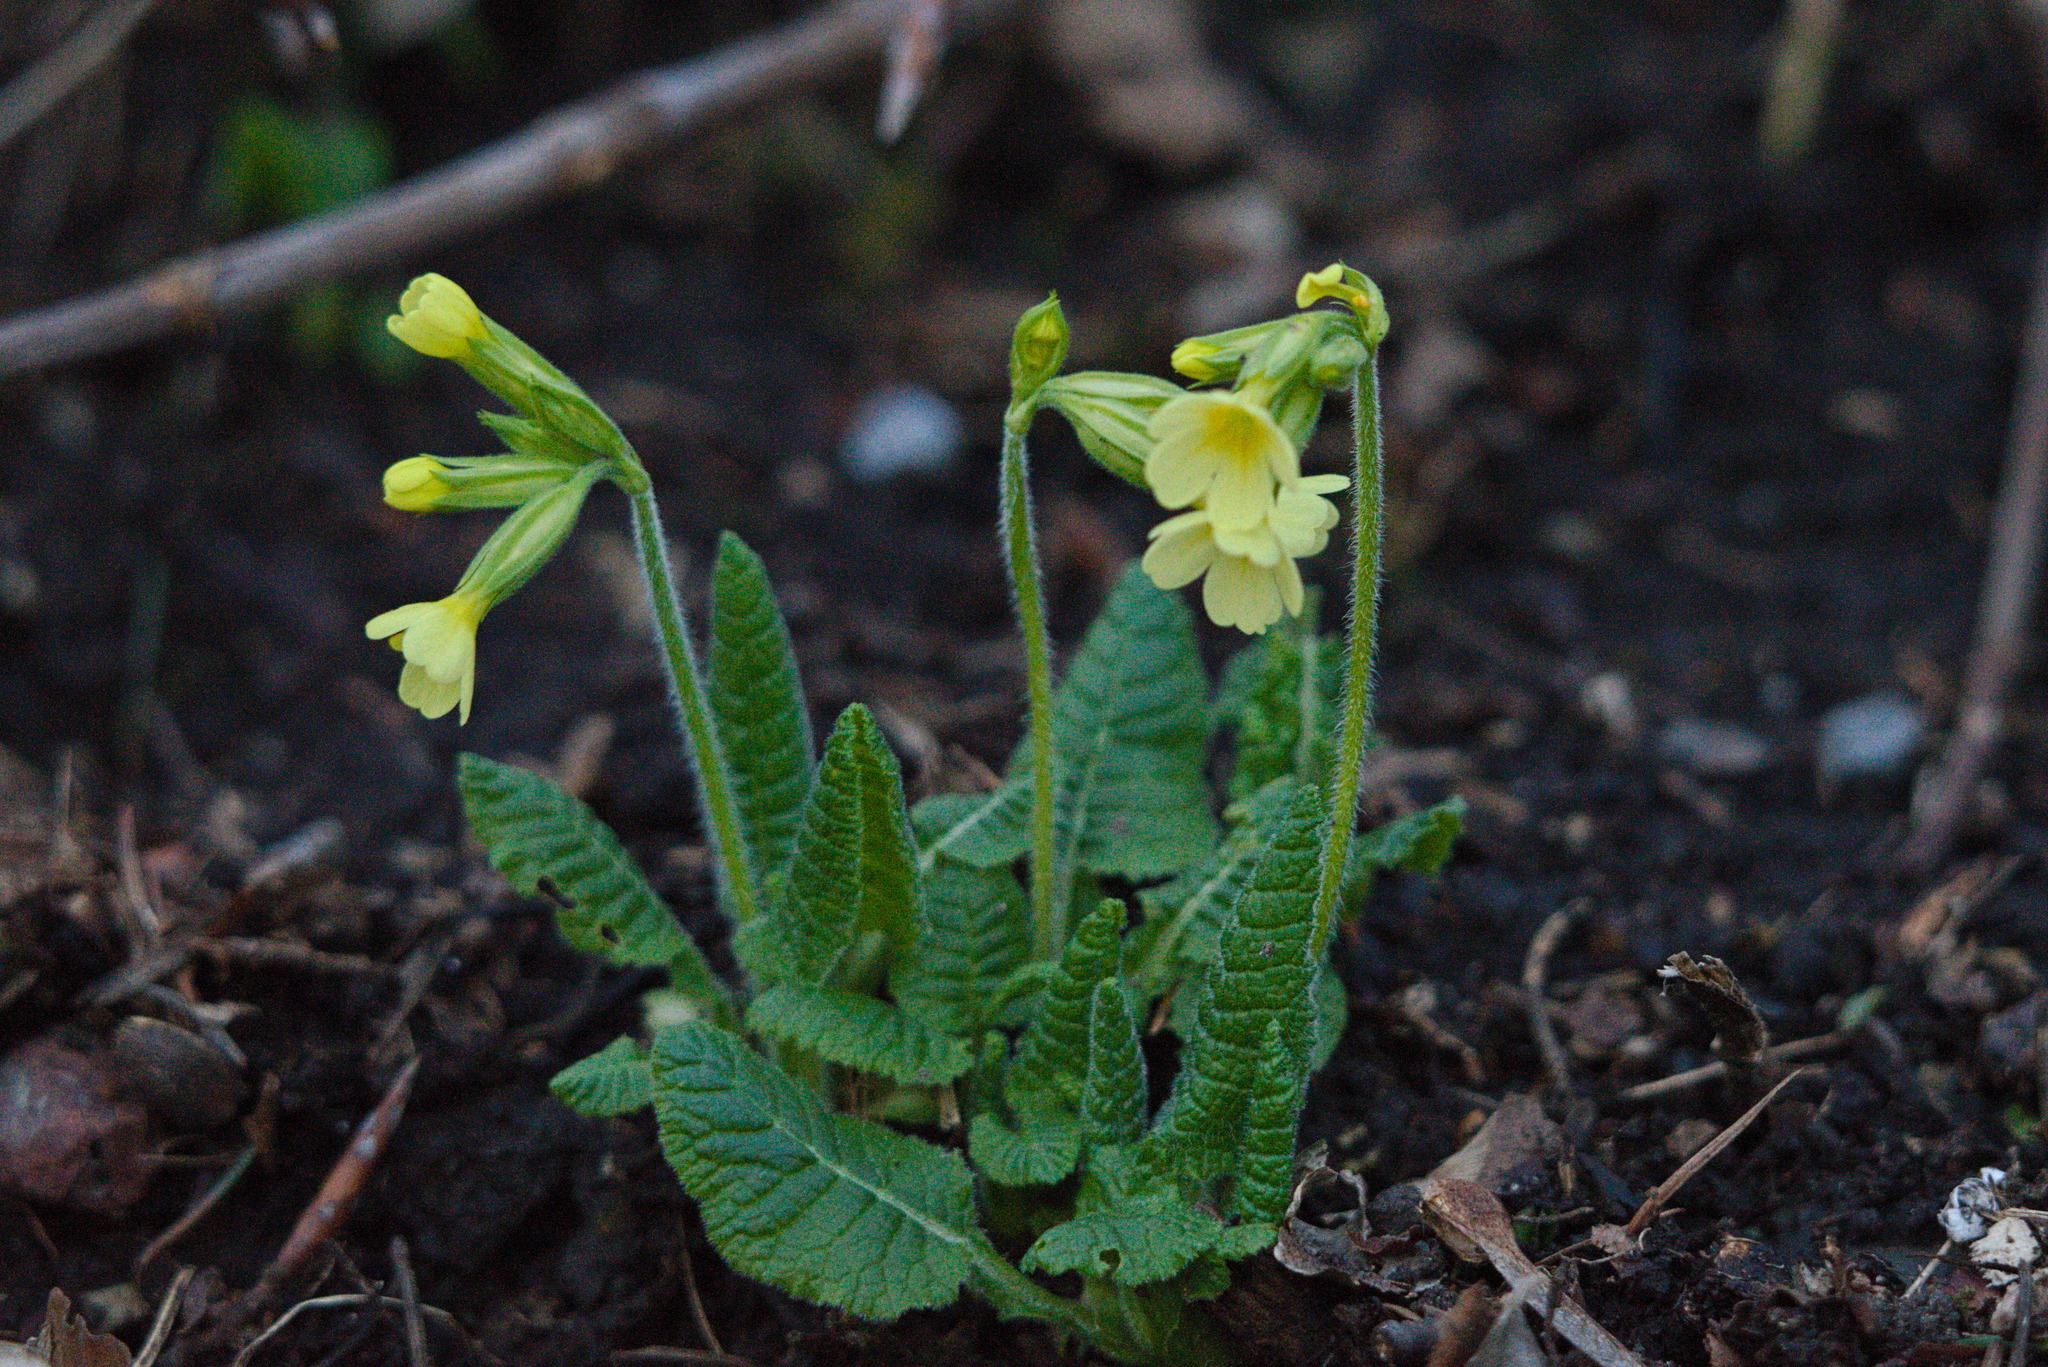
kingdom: Plantae
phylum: Tracheophyta
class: Magnoliopsida
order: Ericales
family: Primulaceae
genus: Primula
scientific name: Primula elatior
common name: Oxlip
